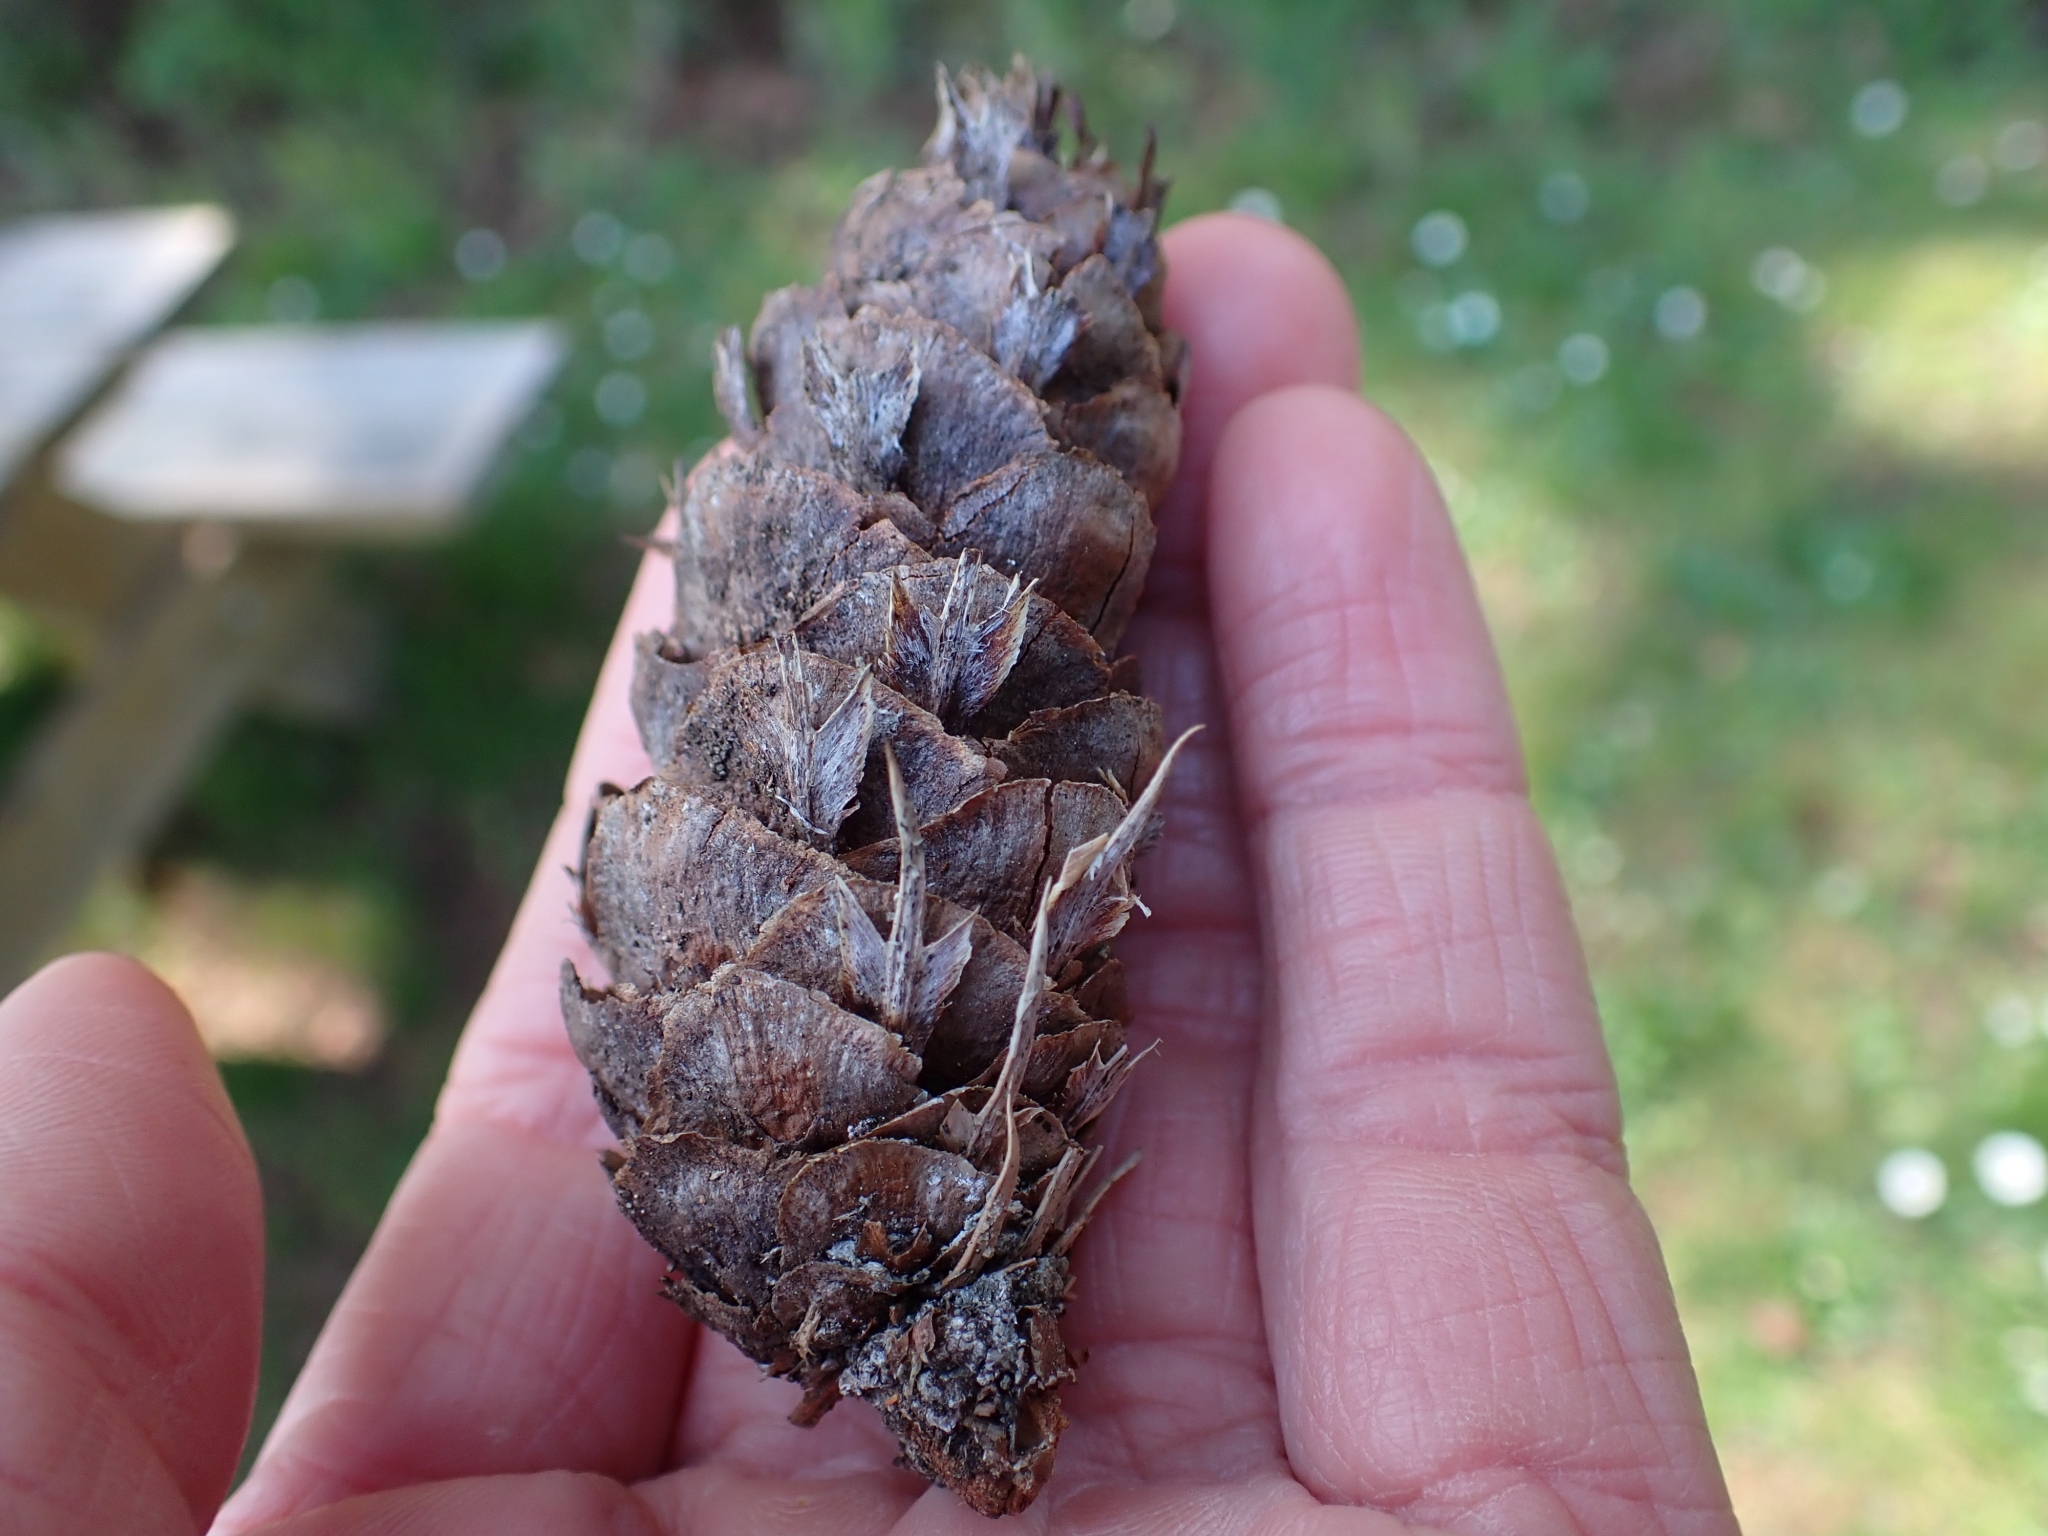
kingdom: Plantae
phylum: Tracheophyta
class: Pinopsida
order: Pinales
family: Pinaceae
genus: Pseudotsuga
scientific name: Pseudotsuga menziesii
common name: Douglas fir
